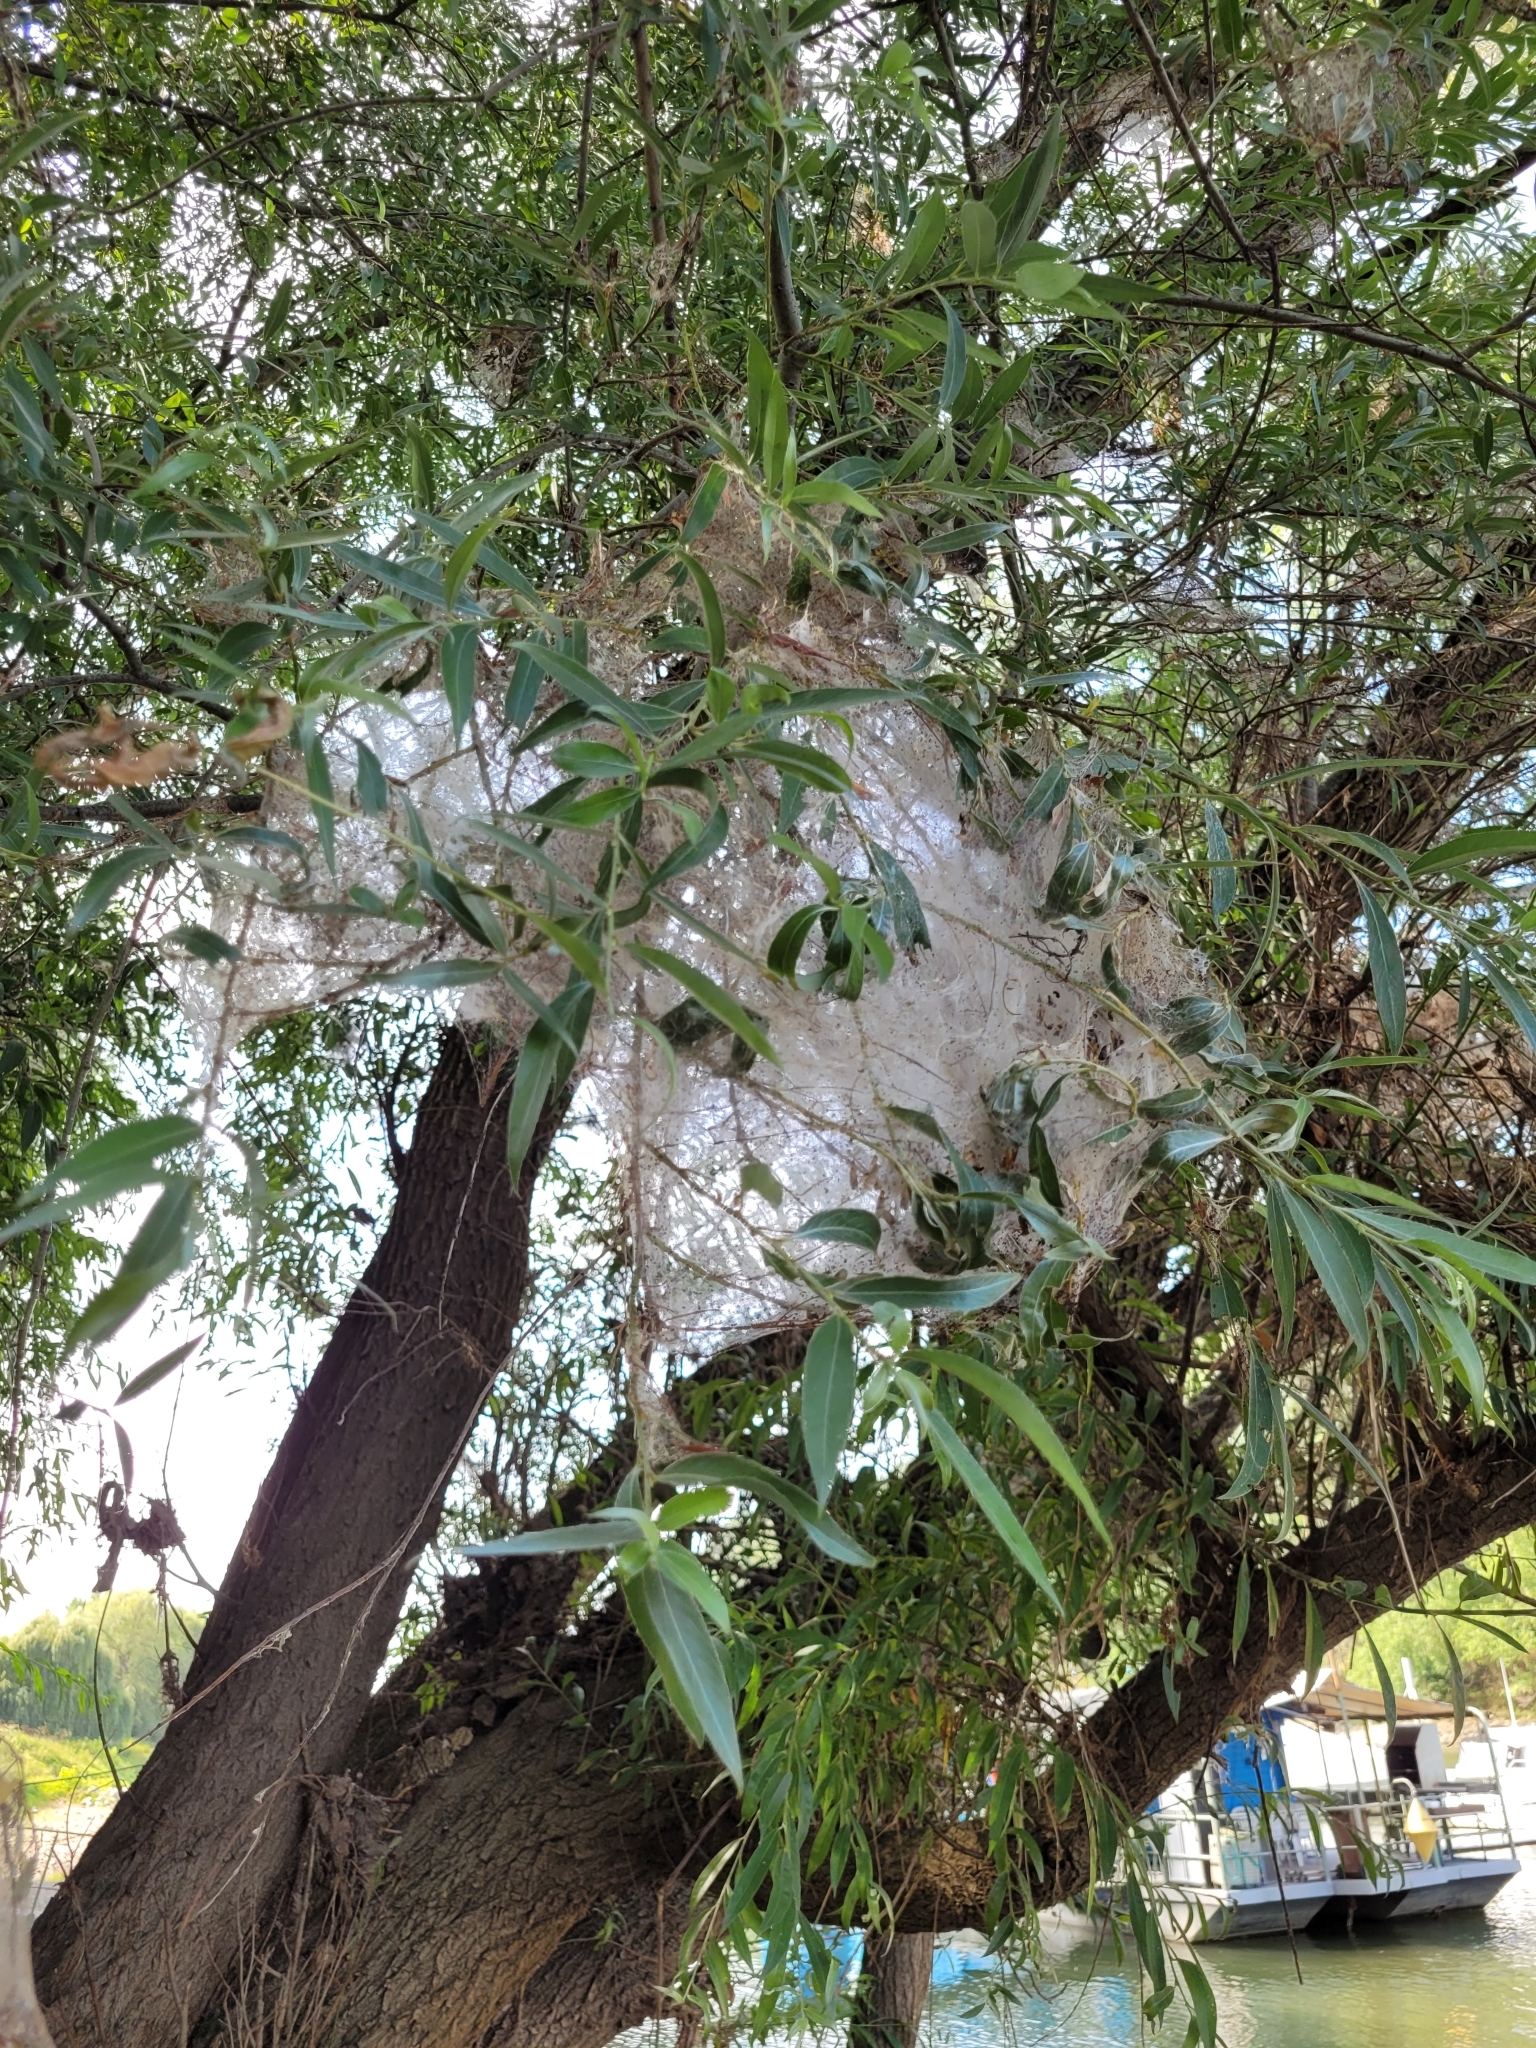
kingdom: Plantae
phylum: Tracheophyta
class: Magnoliopsida
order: Malpighiales
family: Salicaceae
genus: Salix
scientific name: Salix alba
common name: White willow
